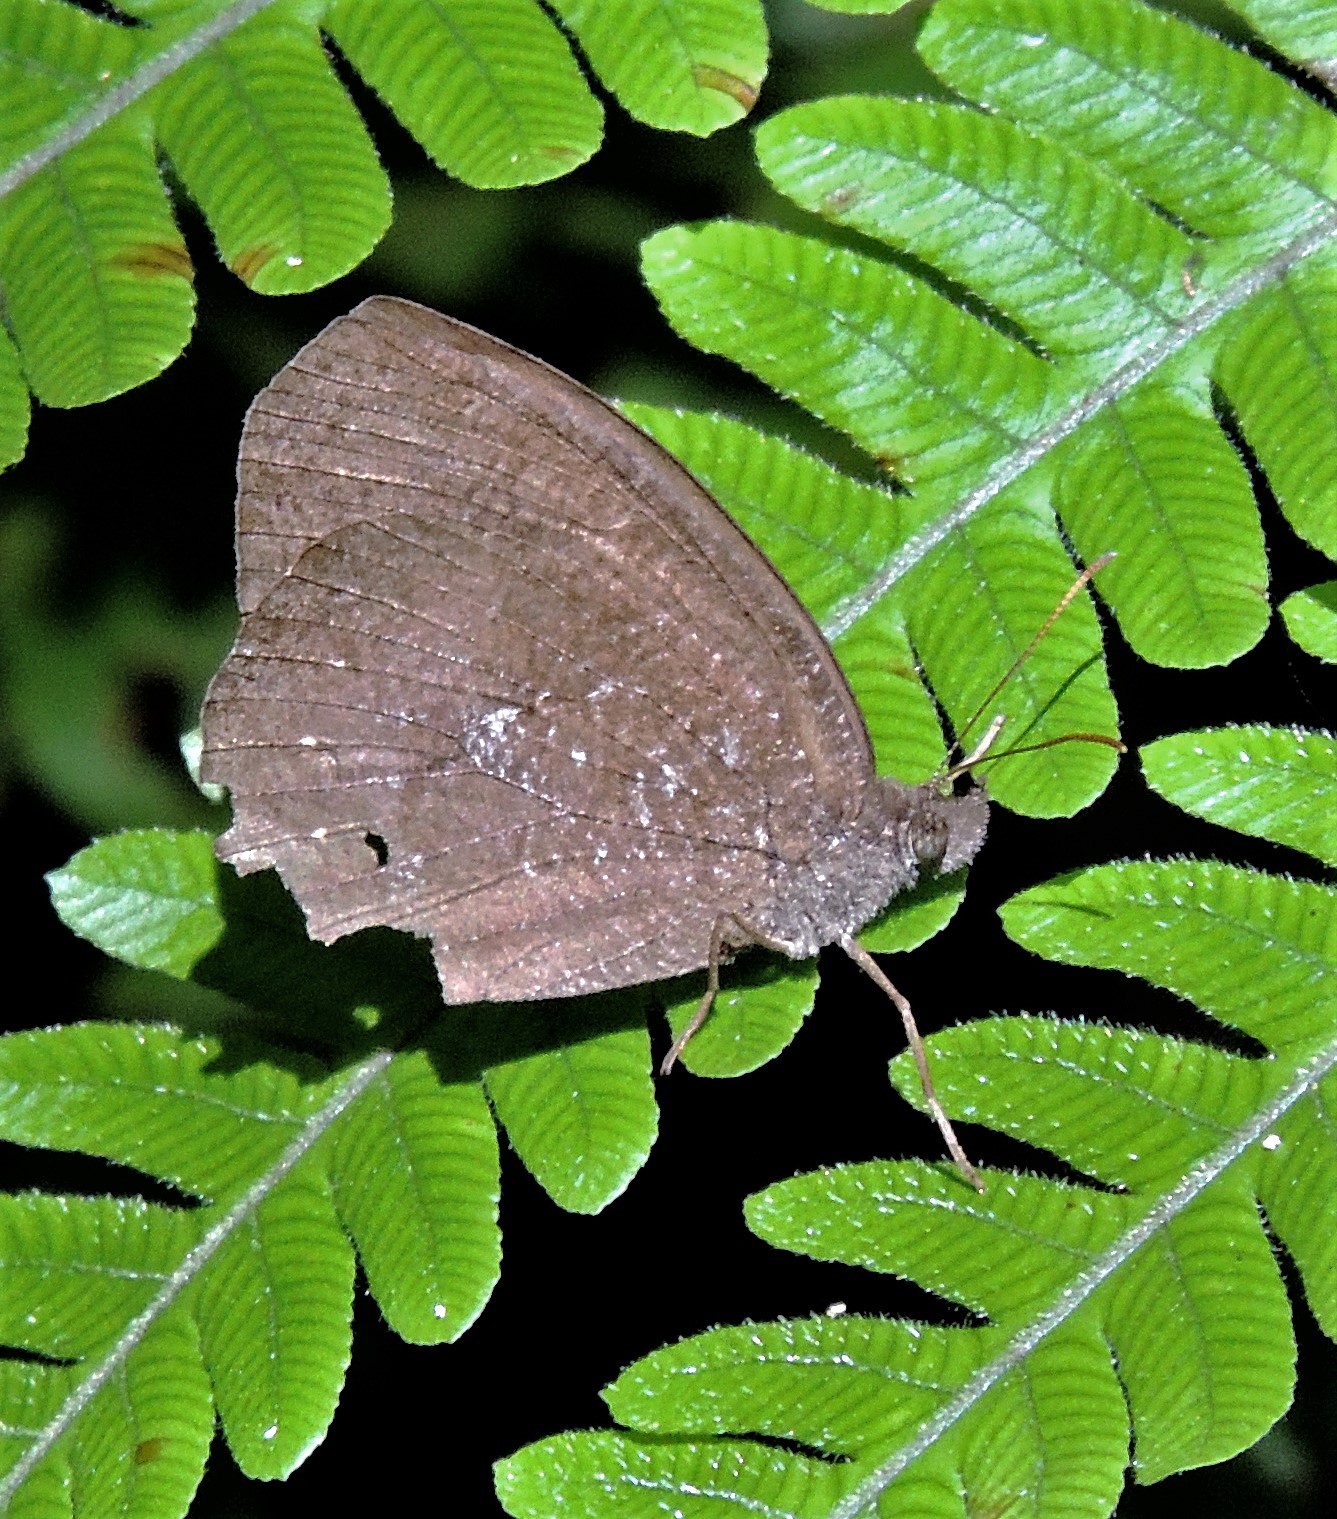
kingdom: Animalia
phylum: Arthropoda
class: Insecta
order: Lepidoptera
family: Nymphalidae
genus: Godartiana
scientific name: Godartiana muscosa
